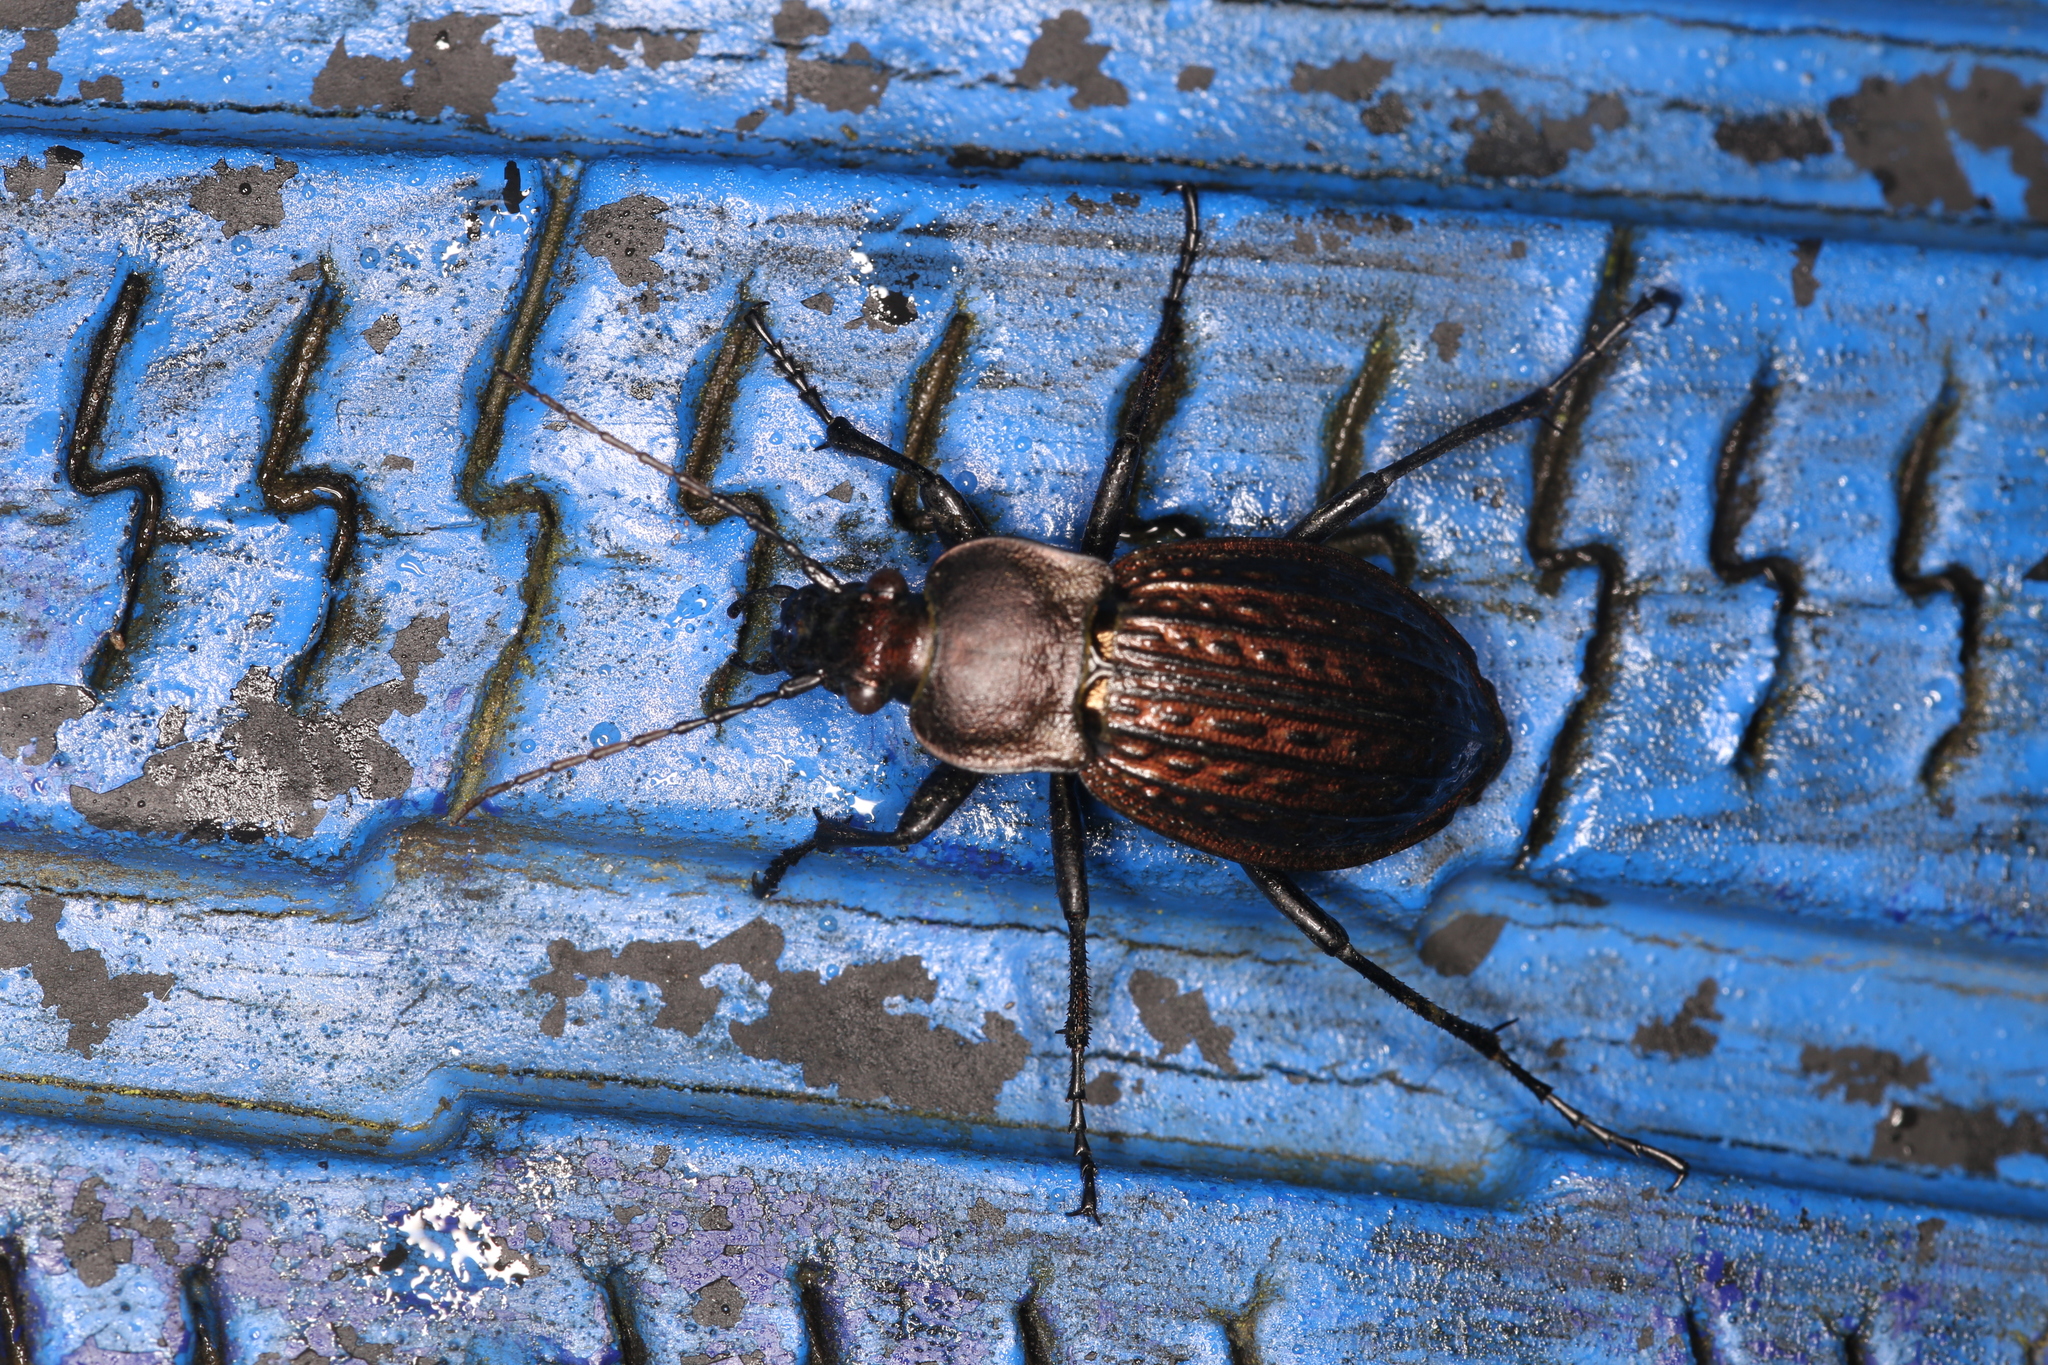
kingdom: Animalia
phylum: Arthropoda
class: Insecta
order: Coleoptera
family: Carabidae
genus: Carabus
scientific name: Carabus cancellatus
